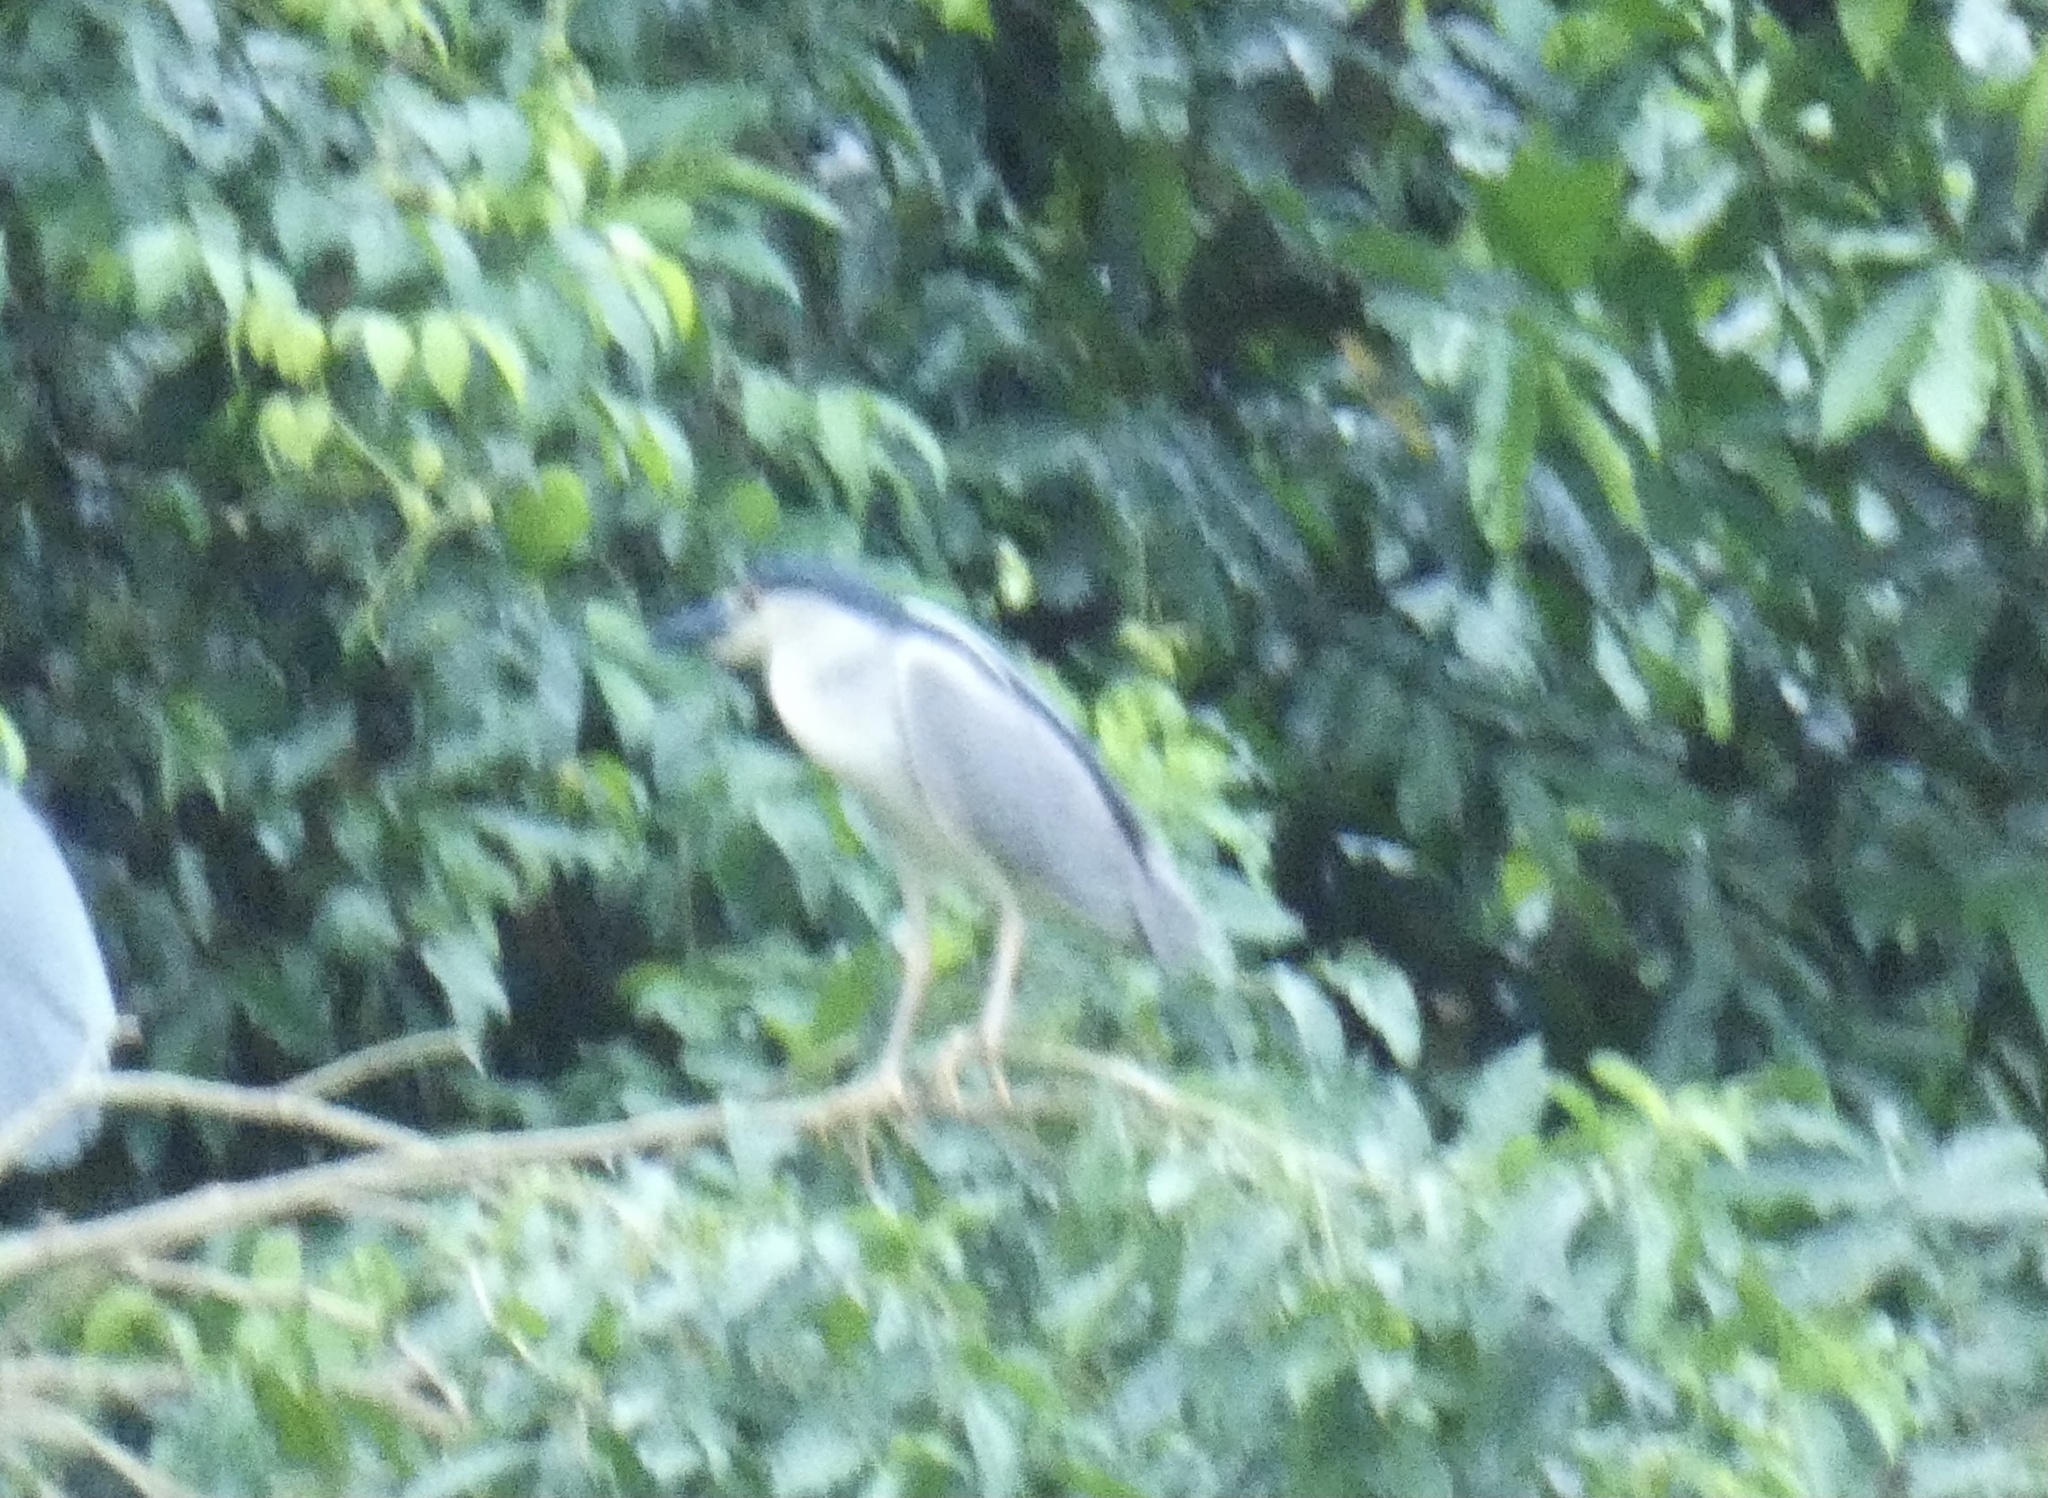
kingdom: Animalia
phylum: Chordata
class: Aves
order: Pelecaniformes
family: Ardeidae
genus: Nycticorax
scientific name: Nycticorax nycticorax
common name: Black-crowned night heron
